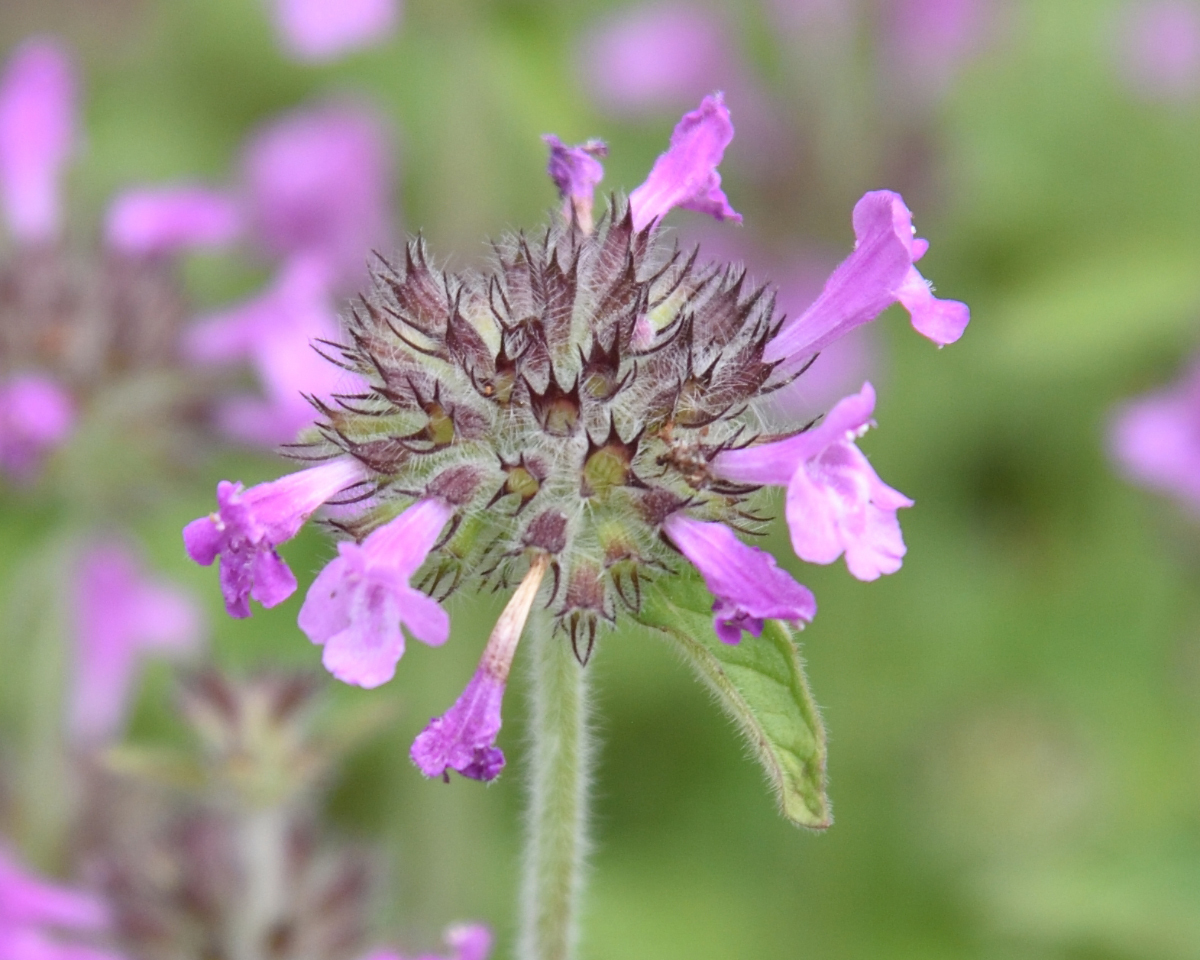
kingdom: Plantae
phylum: Tracheophyta
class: Magnoliopsida
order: Lamiales
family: Lamiaceae
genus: Clinopodium
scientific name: Clinopodium vulgare
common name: Wild basil
